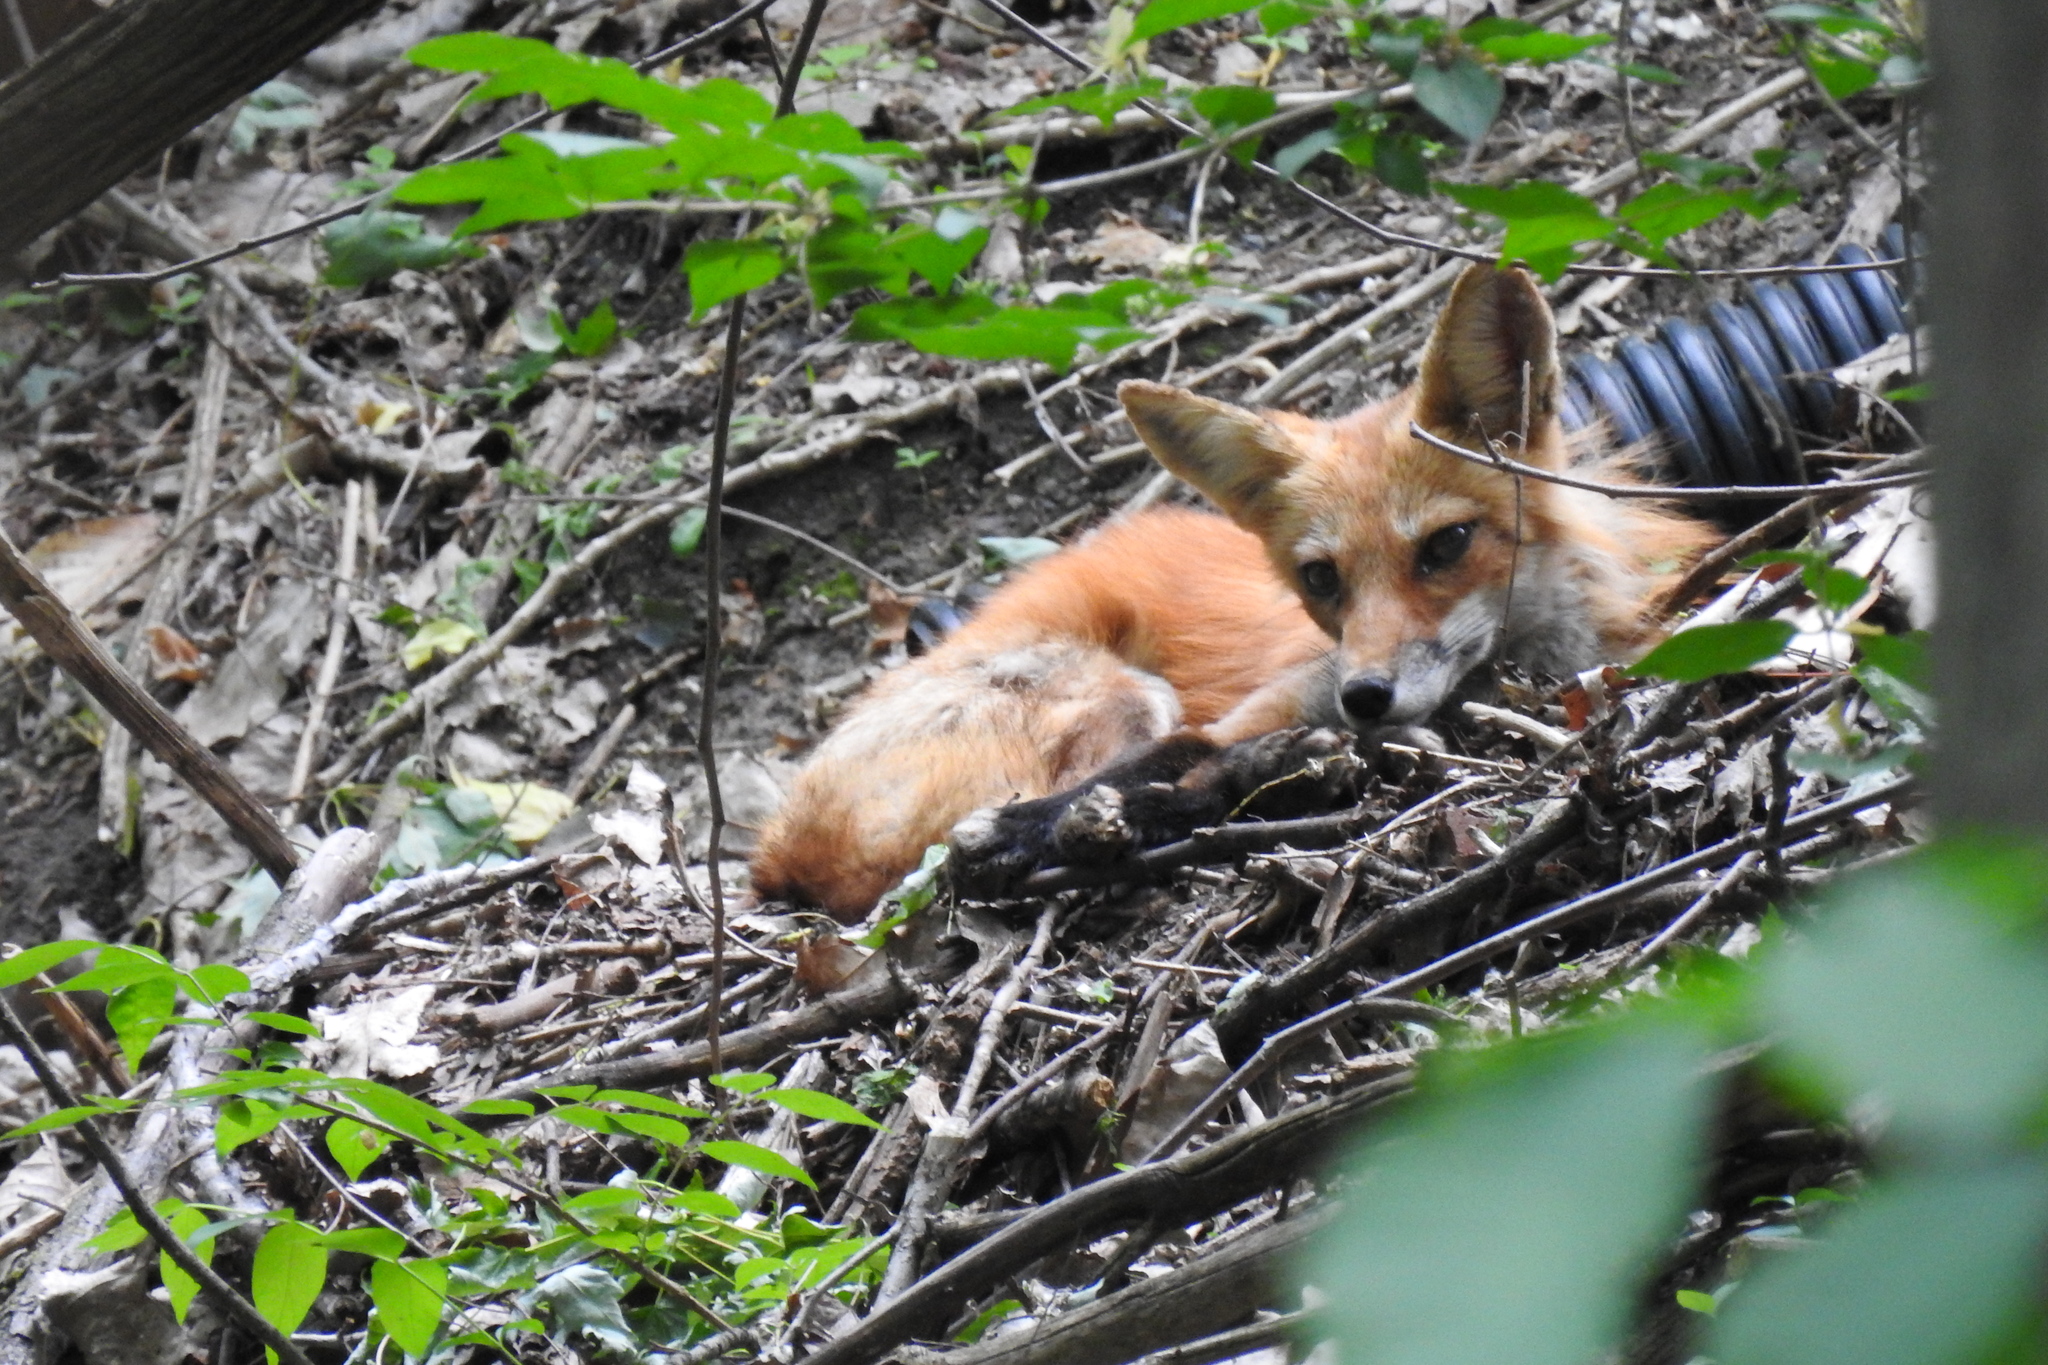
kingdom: Animalia
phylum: Chordata
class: Mammalia
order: Carnivora
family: Canidae
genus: Vulpes
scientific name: Vulpes vulpes
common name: Red fox
